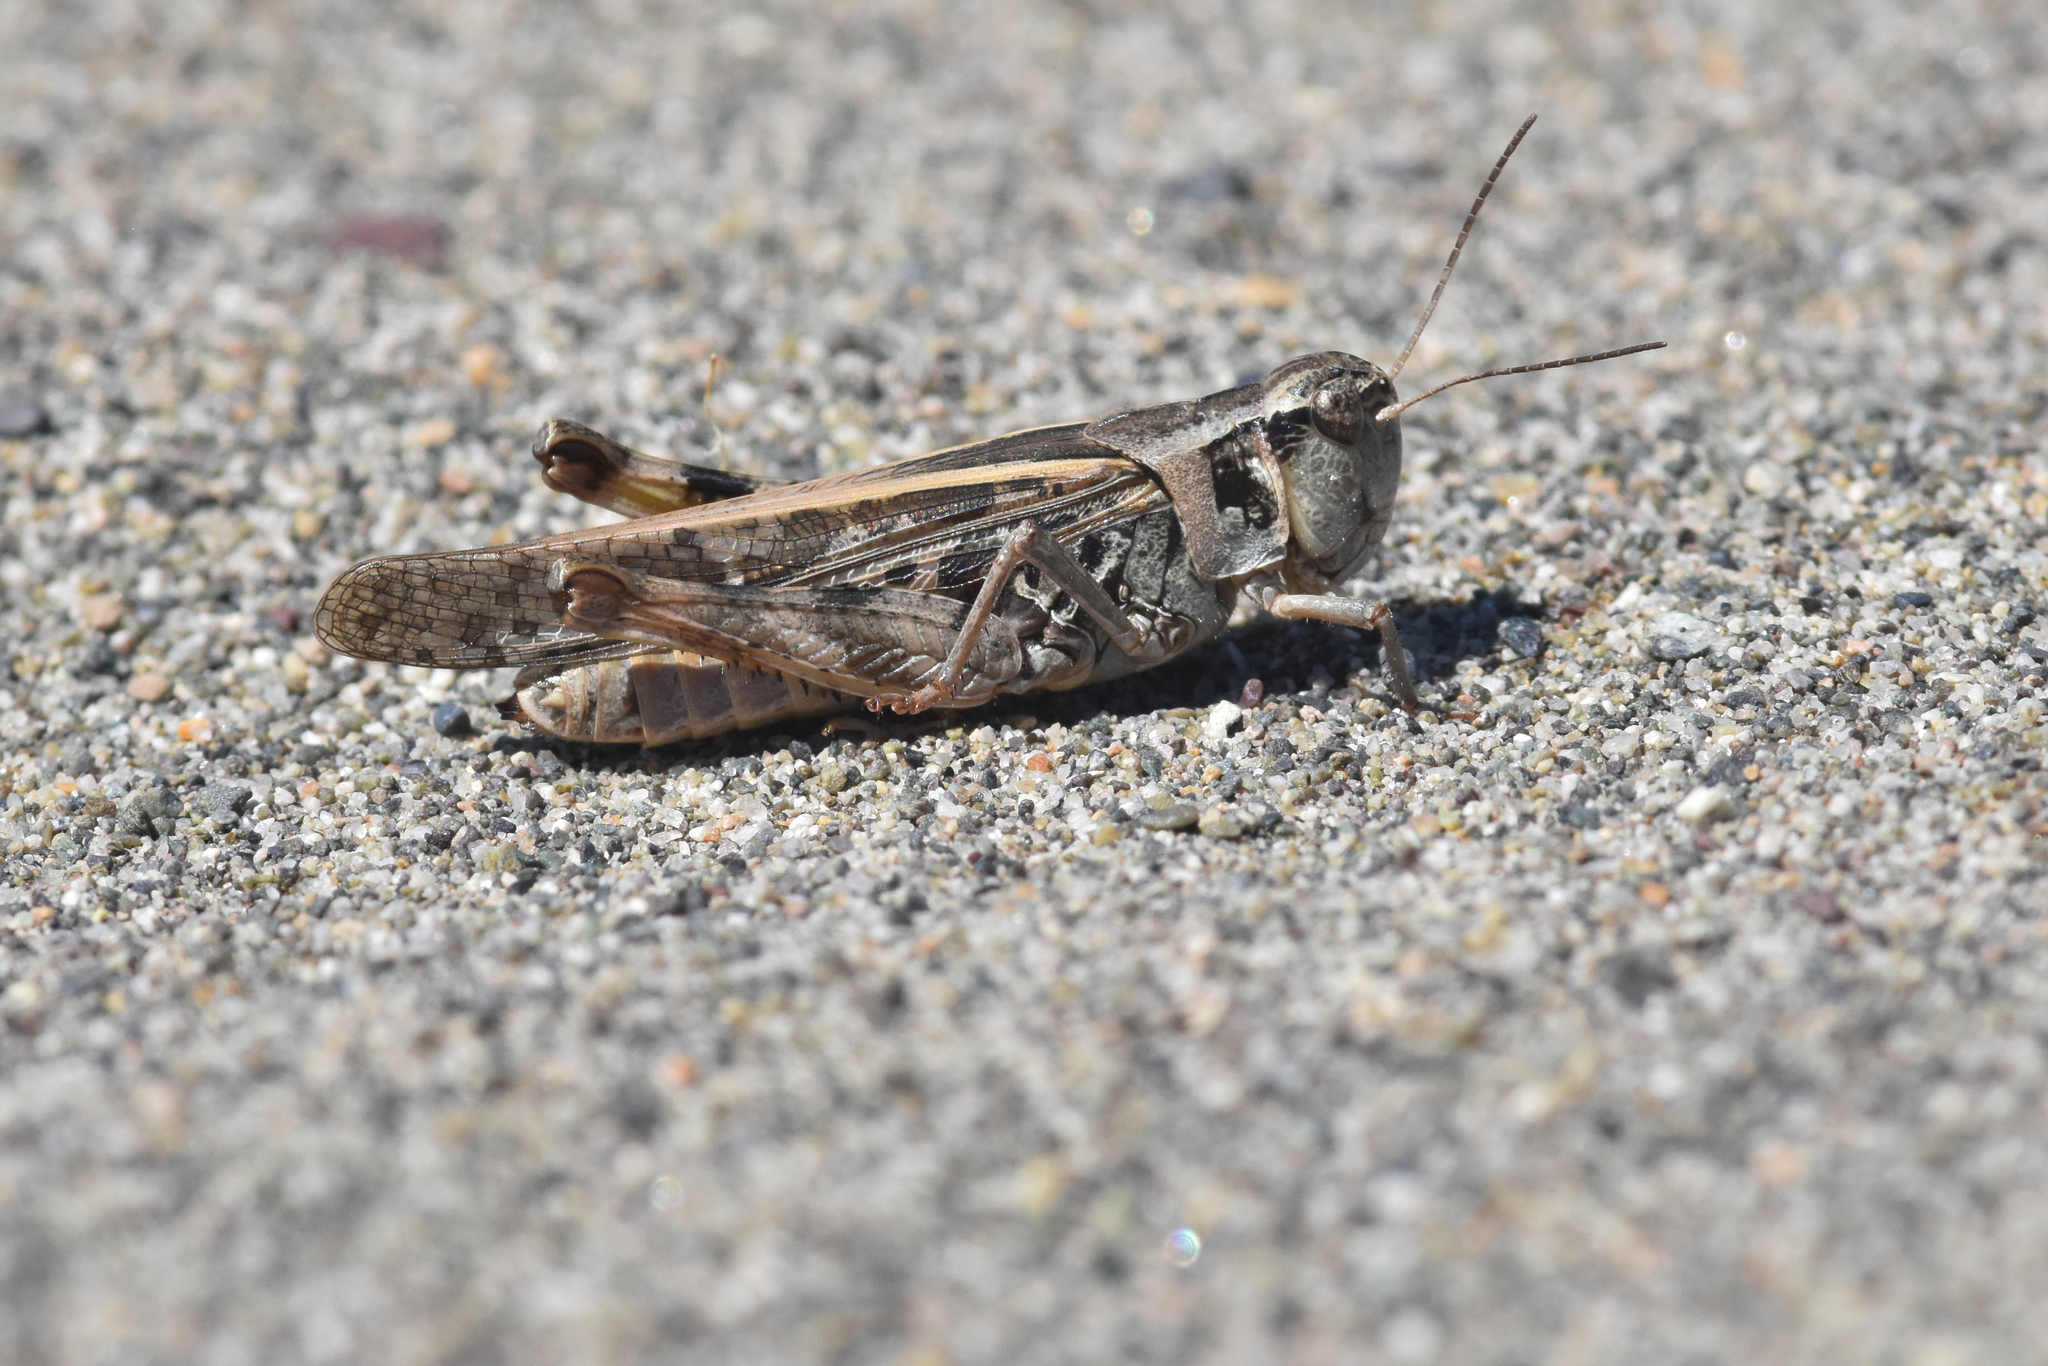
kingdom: Animalia
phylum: Arthropoda
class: Insecta
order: Orthoptera
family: Acrididae
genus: Camnula
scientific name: Camnula pellucida
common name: Clear-winged grasshopper
